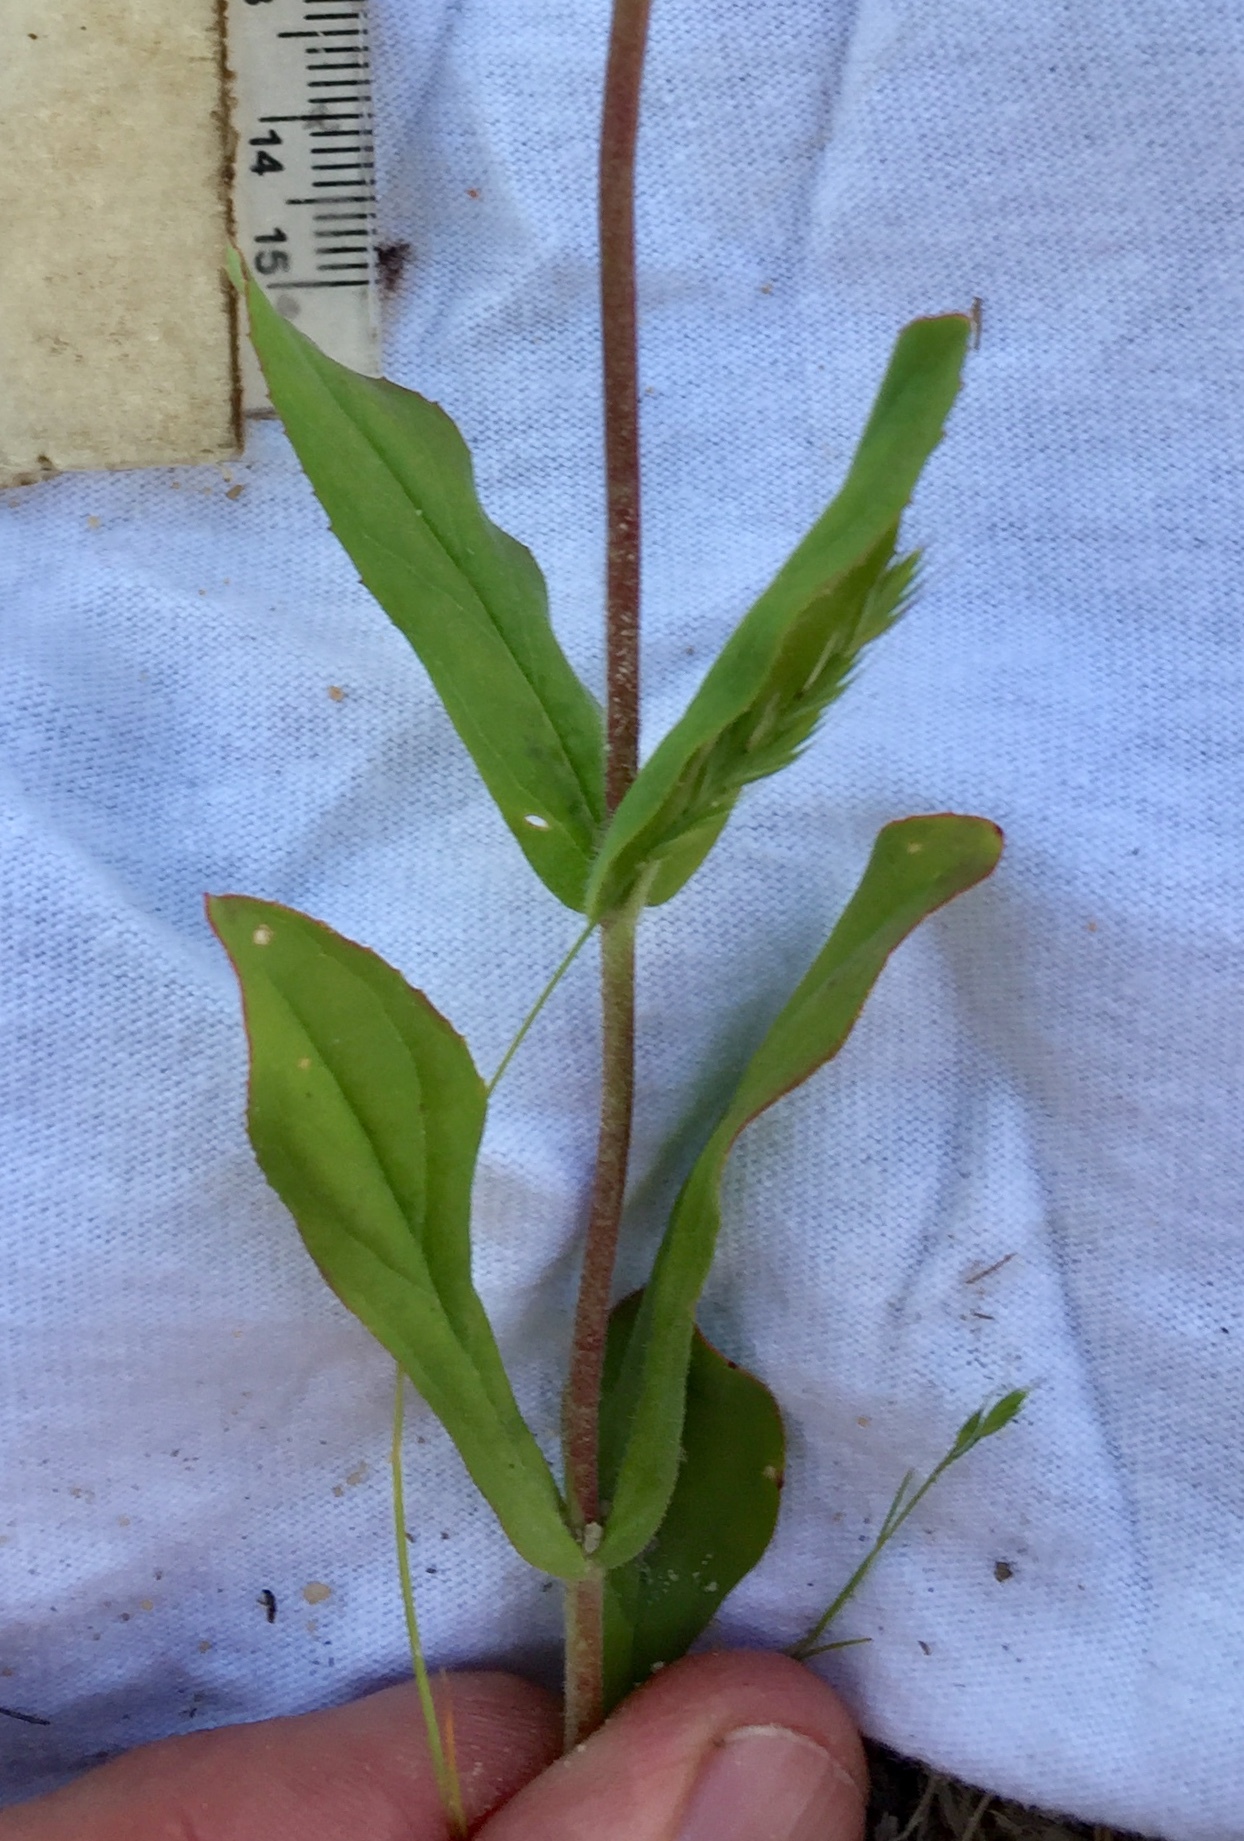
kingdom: Plantae
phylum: Tracheophyta
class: Magnoliopsida
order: Lamiales
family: Plantaginaceae
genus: Penstemon
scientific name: Penstemon australis
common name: Southeastern beardtongue
